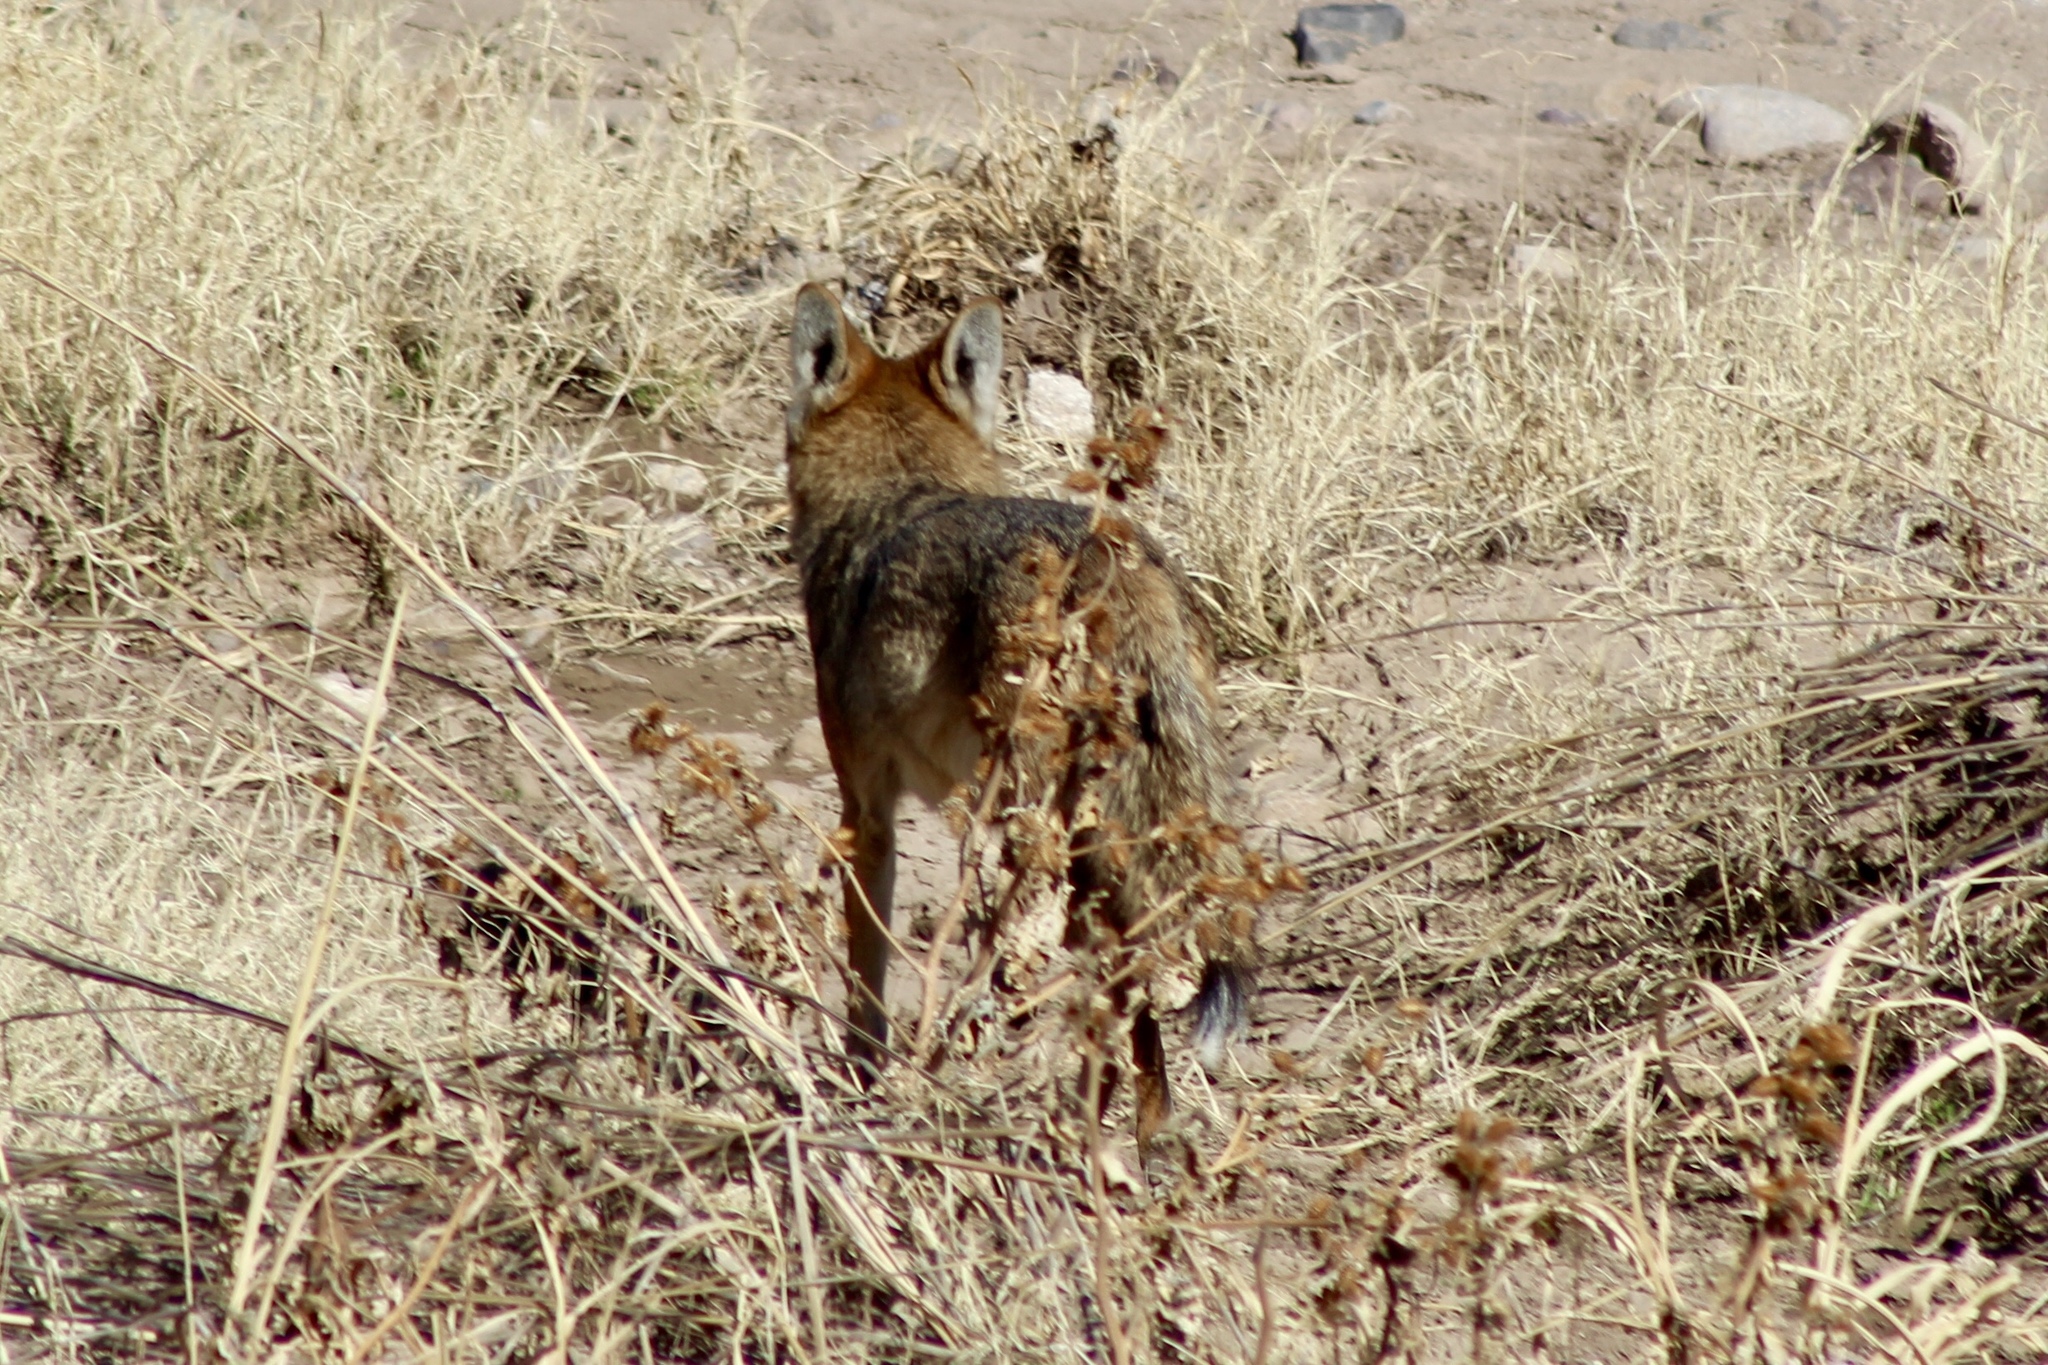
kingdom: Animalia
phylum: Chordata
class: Mammalia
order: Carnivora
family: Canidae
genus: Canis
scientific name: Canis latrans
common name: Coyote
